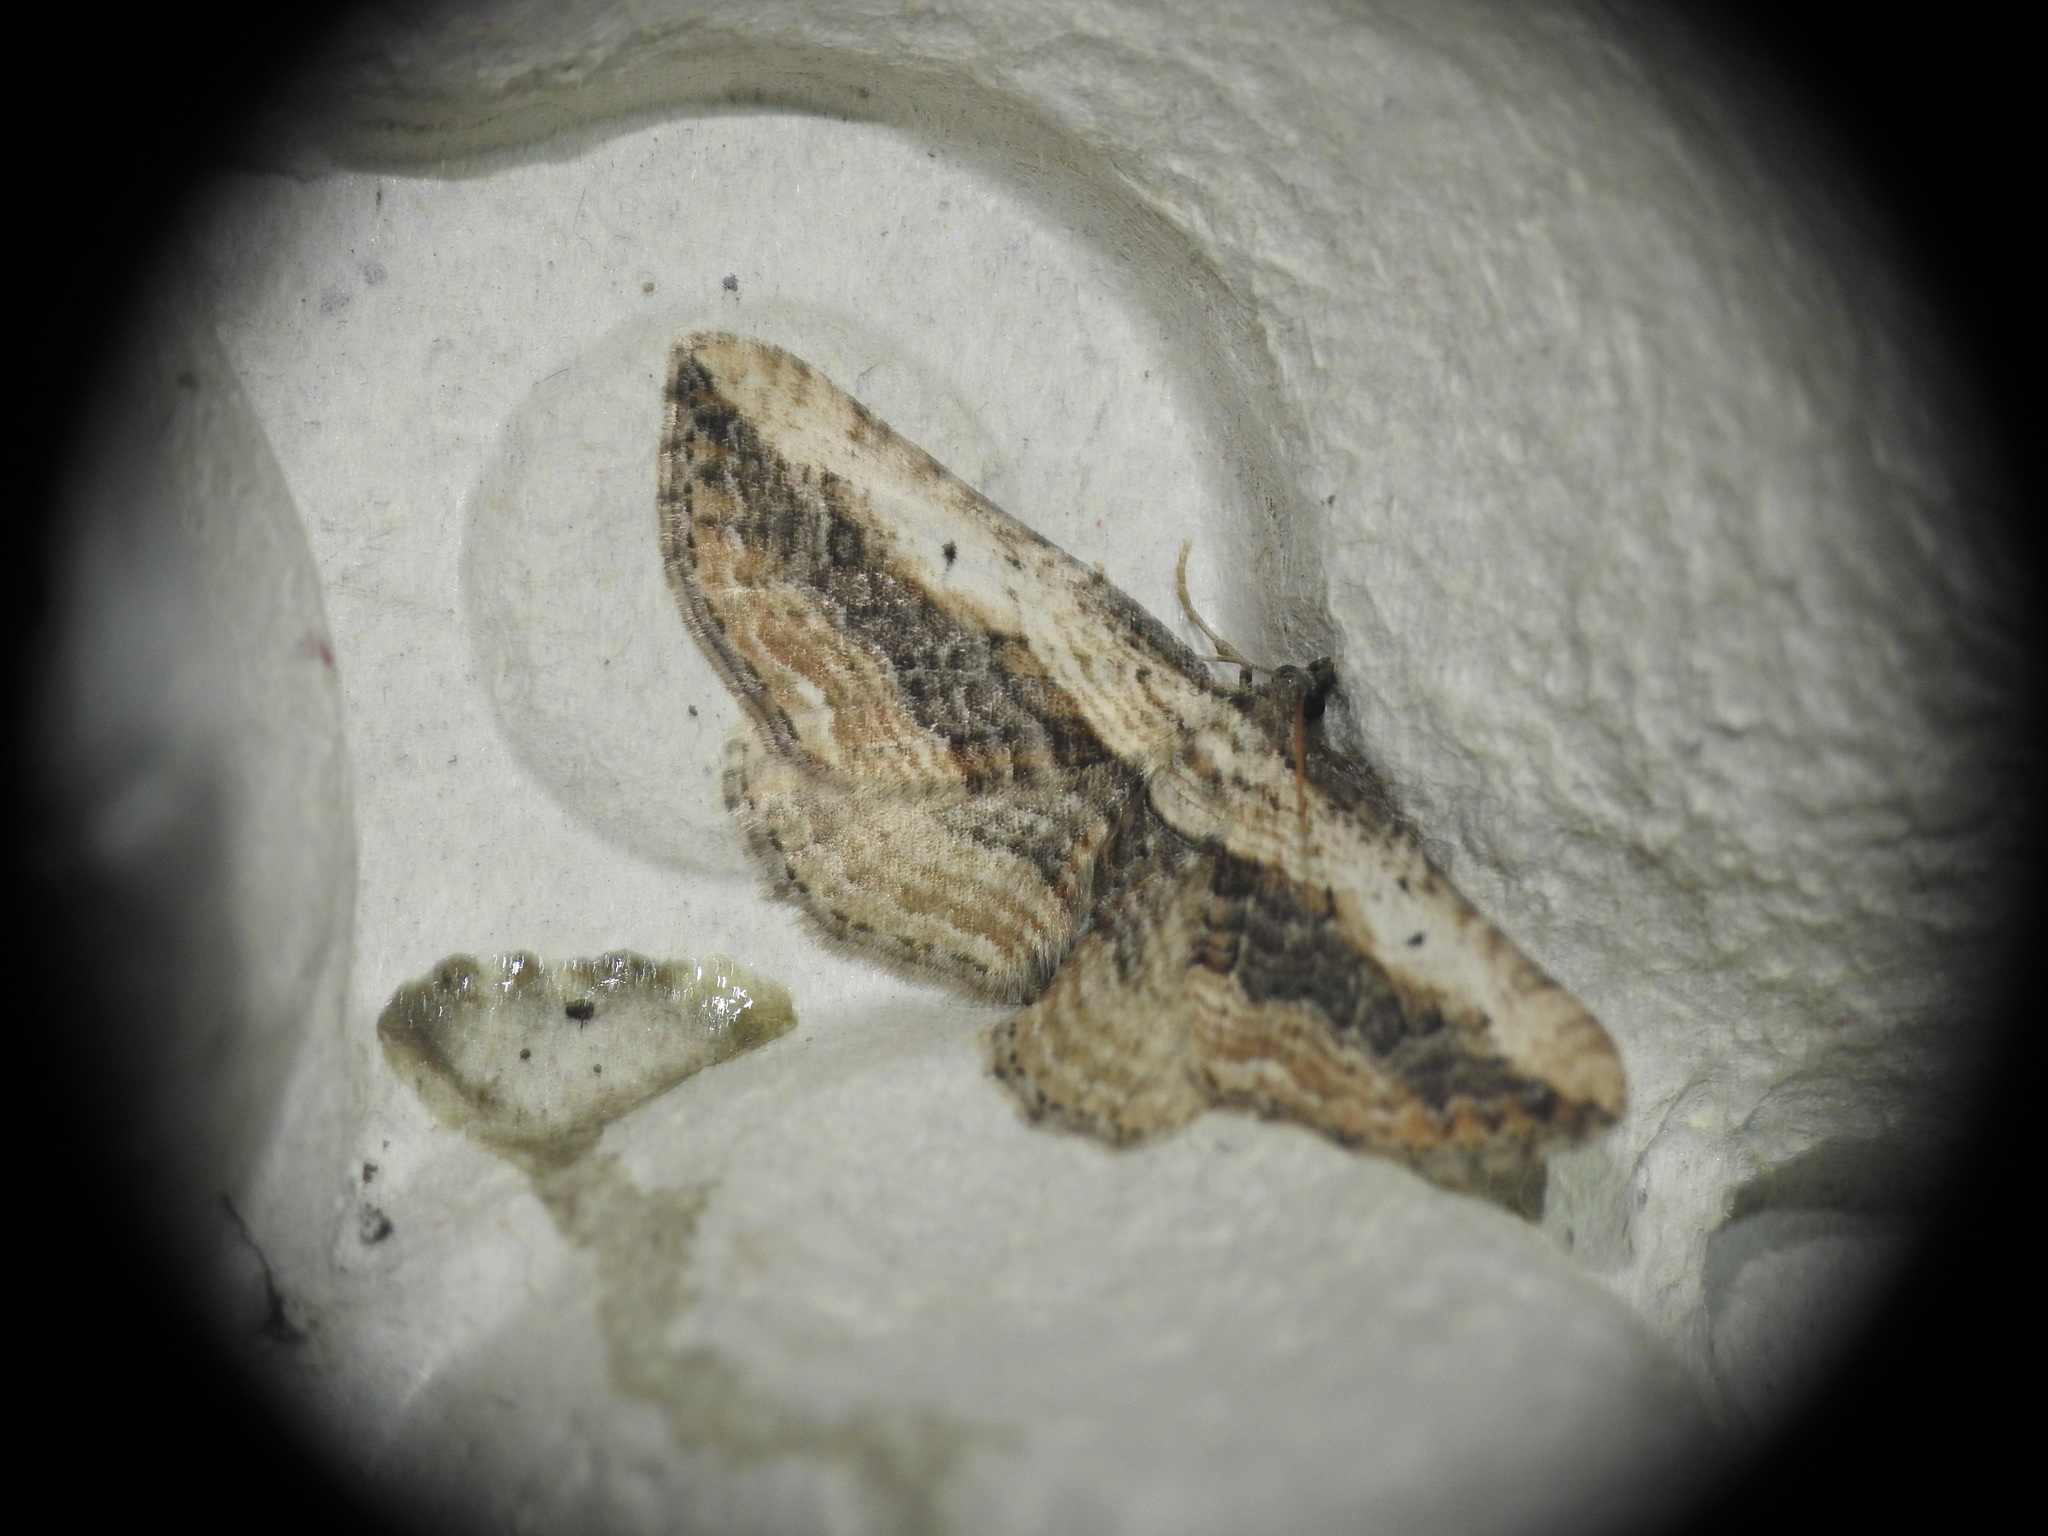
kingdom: Animalia
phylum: Arthropoda
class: Insecta
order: Lepidoptera
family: Geometridae
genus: Horisme
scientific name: Horisme vitalbata
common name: Small waved umber
